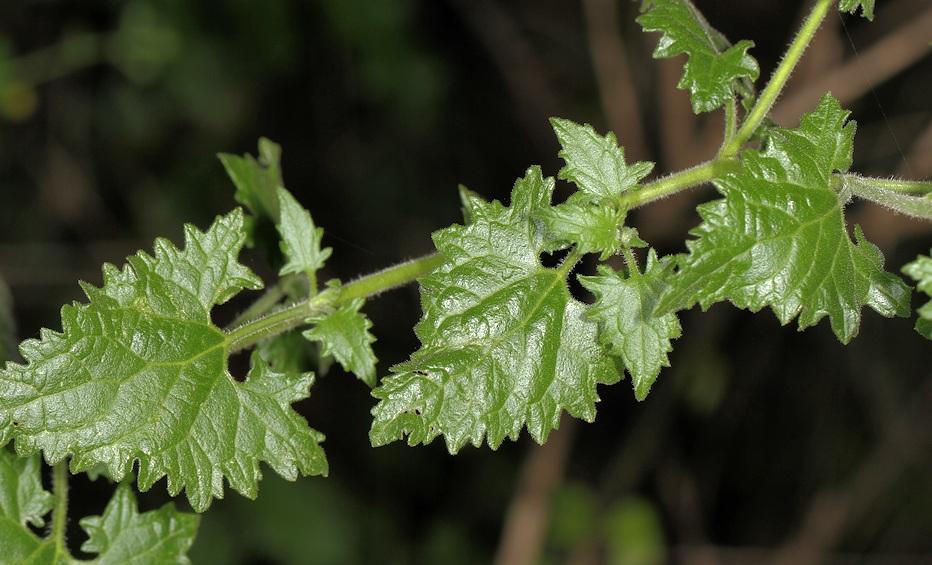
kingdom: Plantae
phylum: Tracheophyta
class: Magnoliopsida
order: Asterales
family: Asteraceae
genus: Anisopappus
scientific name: Anisopappus schinzii
